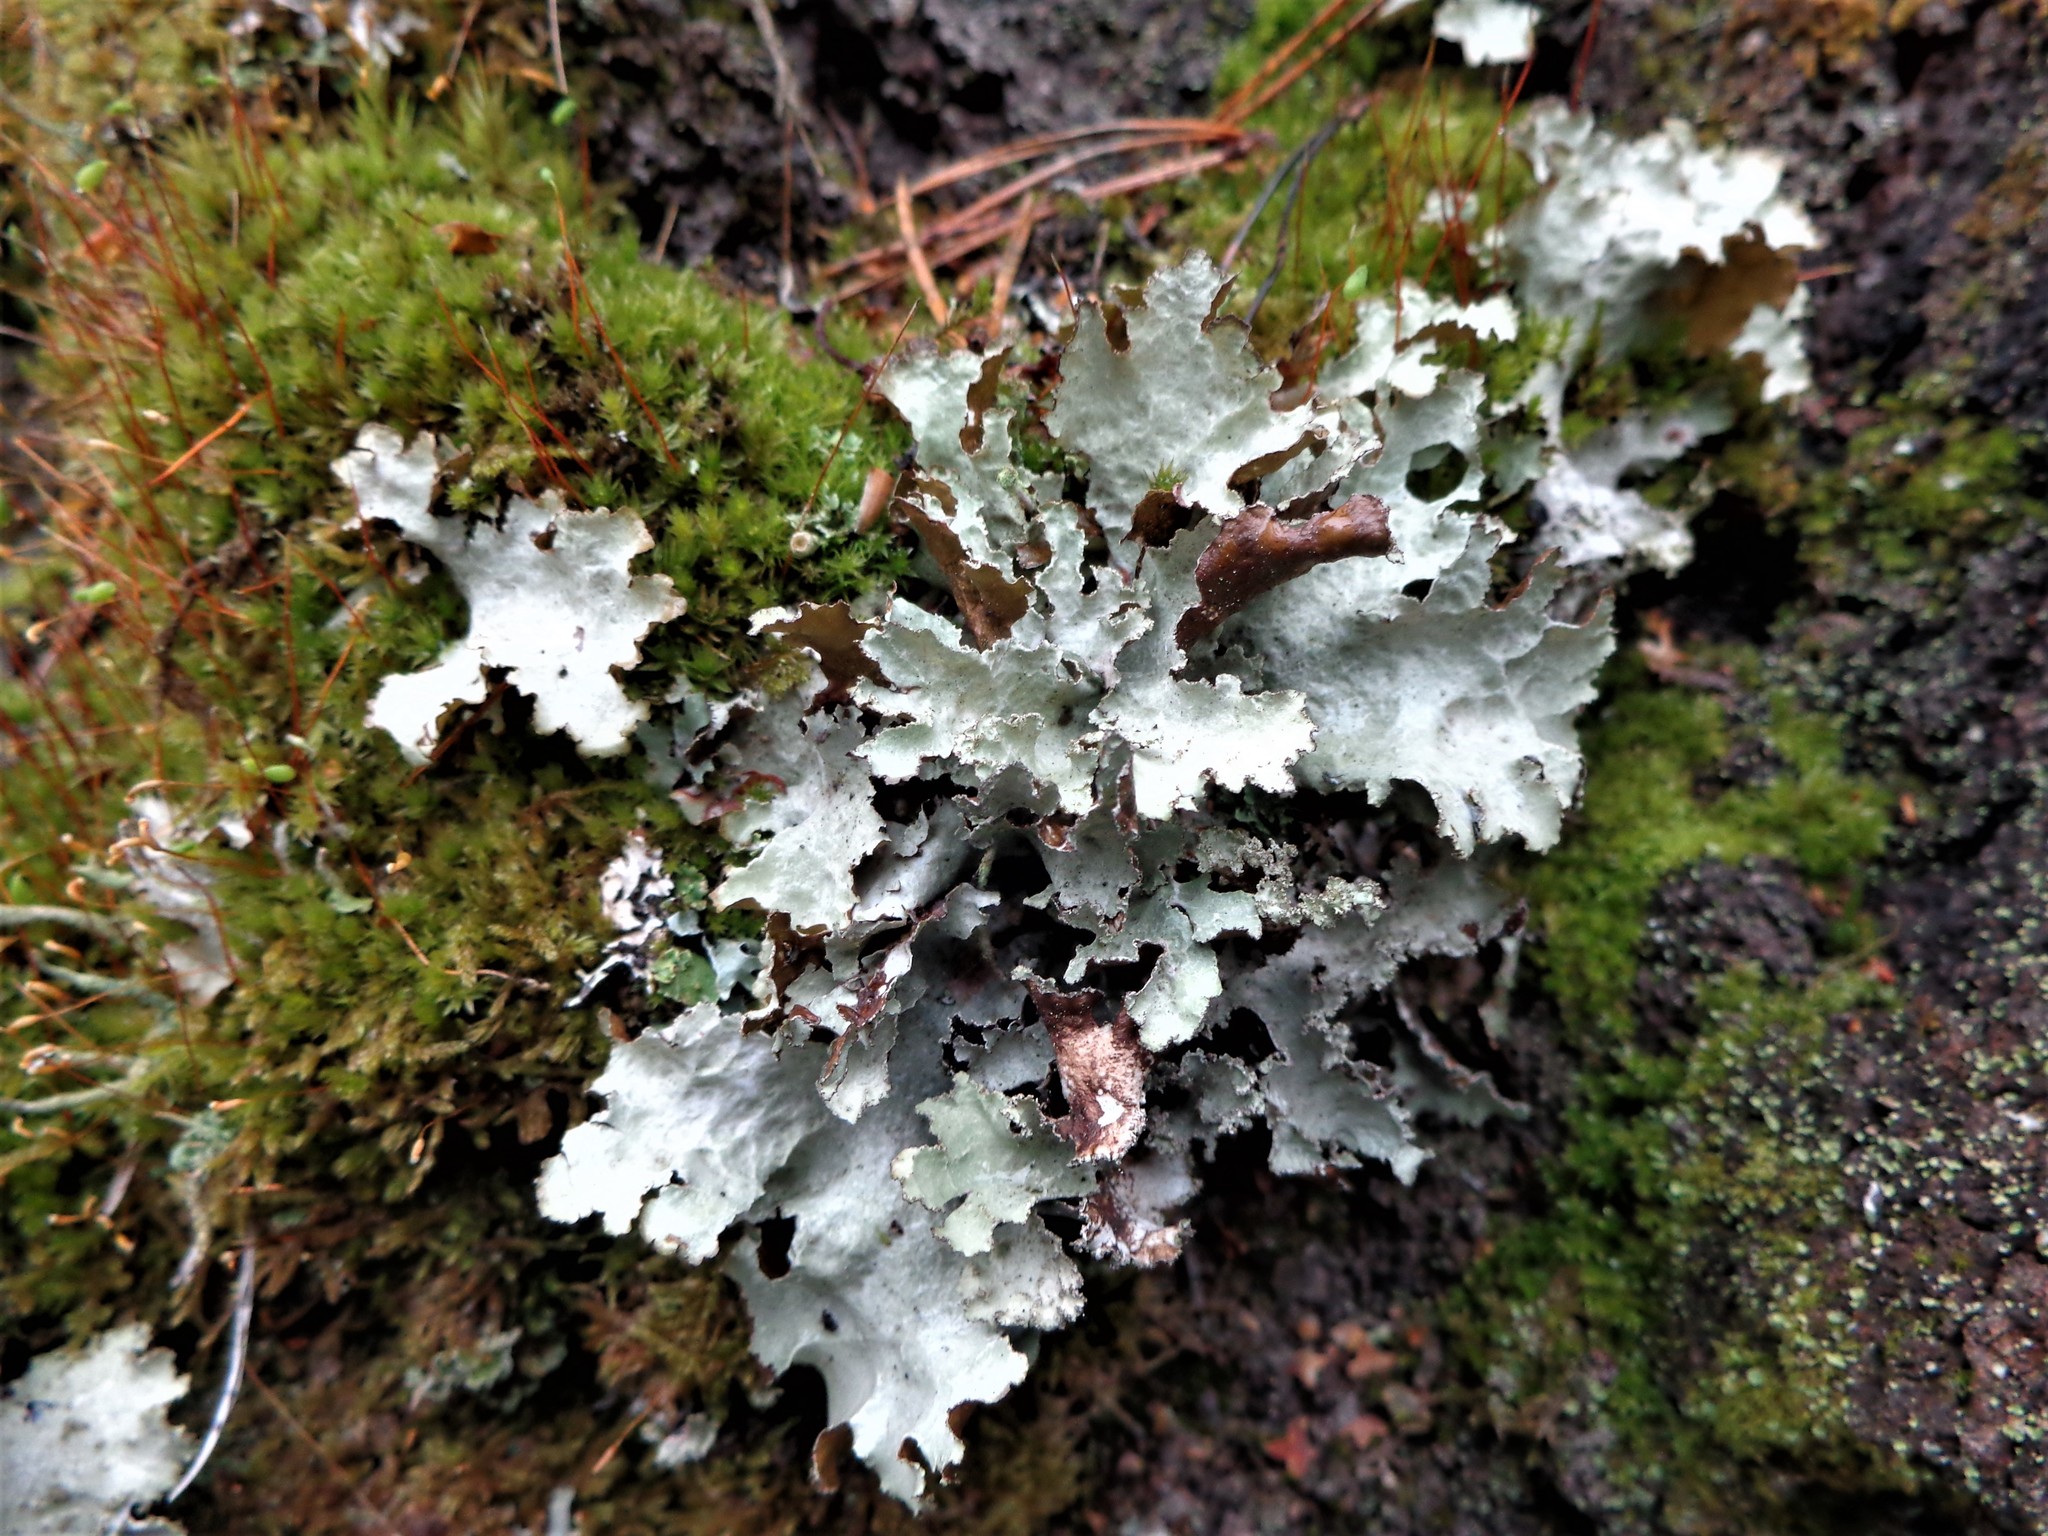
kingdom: Fungi
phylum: Ascomycota
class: Lecanoromycetes
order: Lecanorales
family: Parmeliaceae
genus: Platismatia
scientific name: Platismatia glauca
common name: Varied rag lichen
